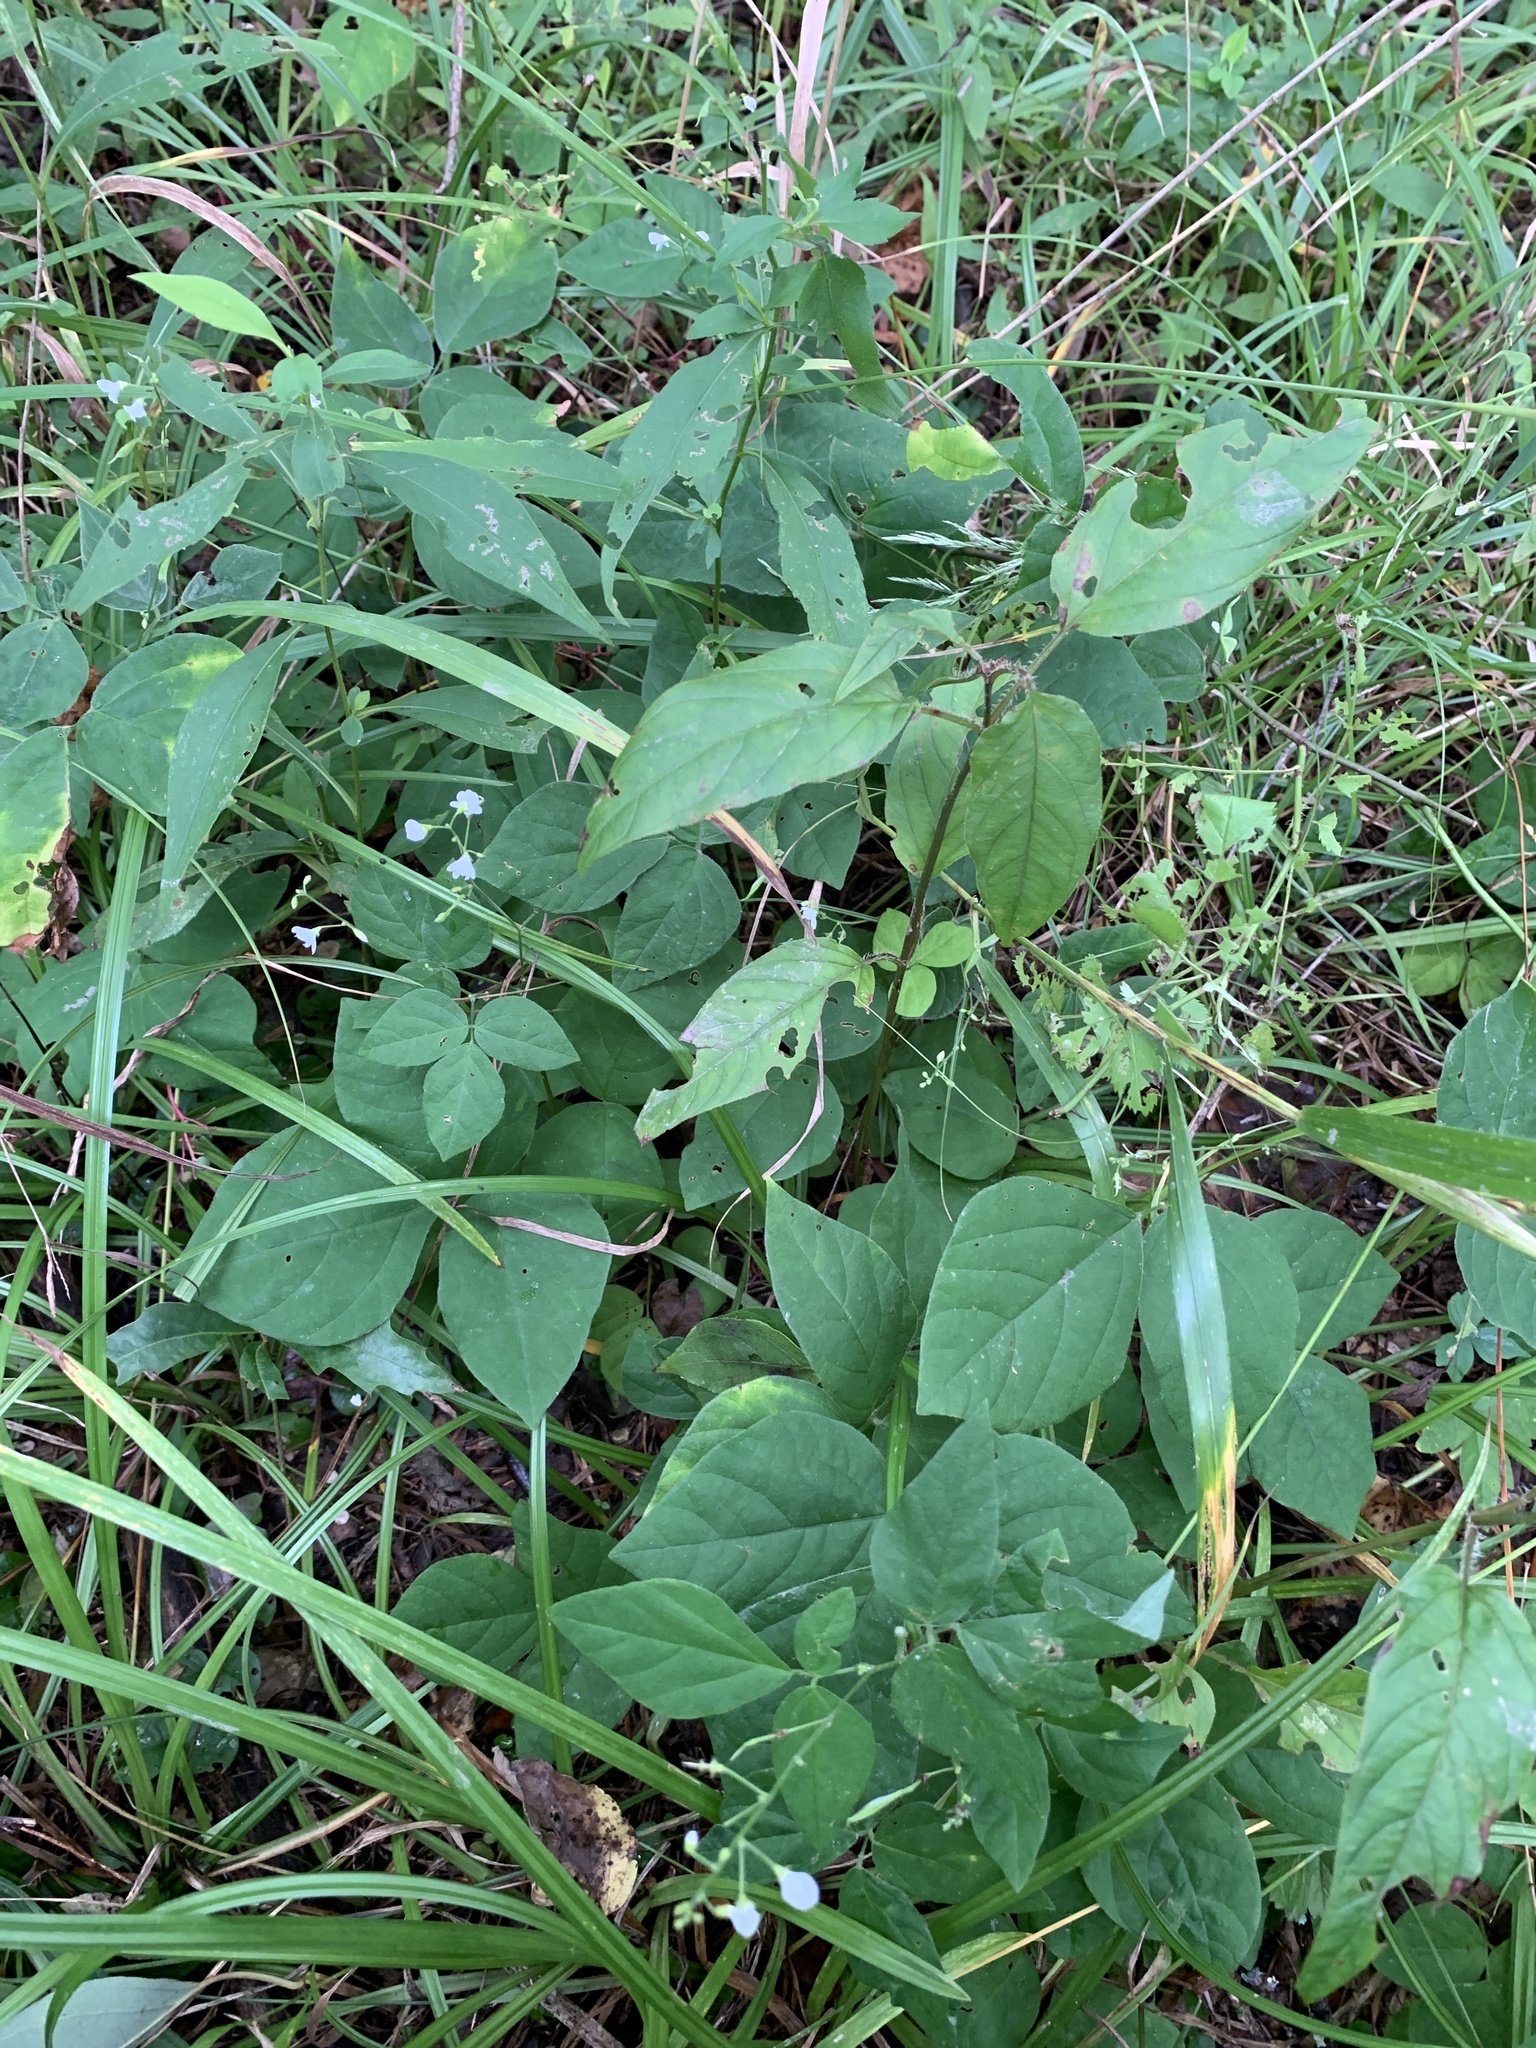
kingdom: Plantae
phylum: Tracheophyta
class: Magnoliopsida
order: Fabales
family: Fabaceae
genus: Hylodesmum
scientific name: Hylodesmum pauciflorum
